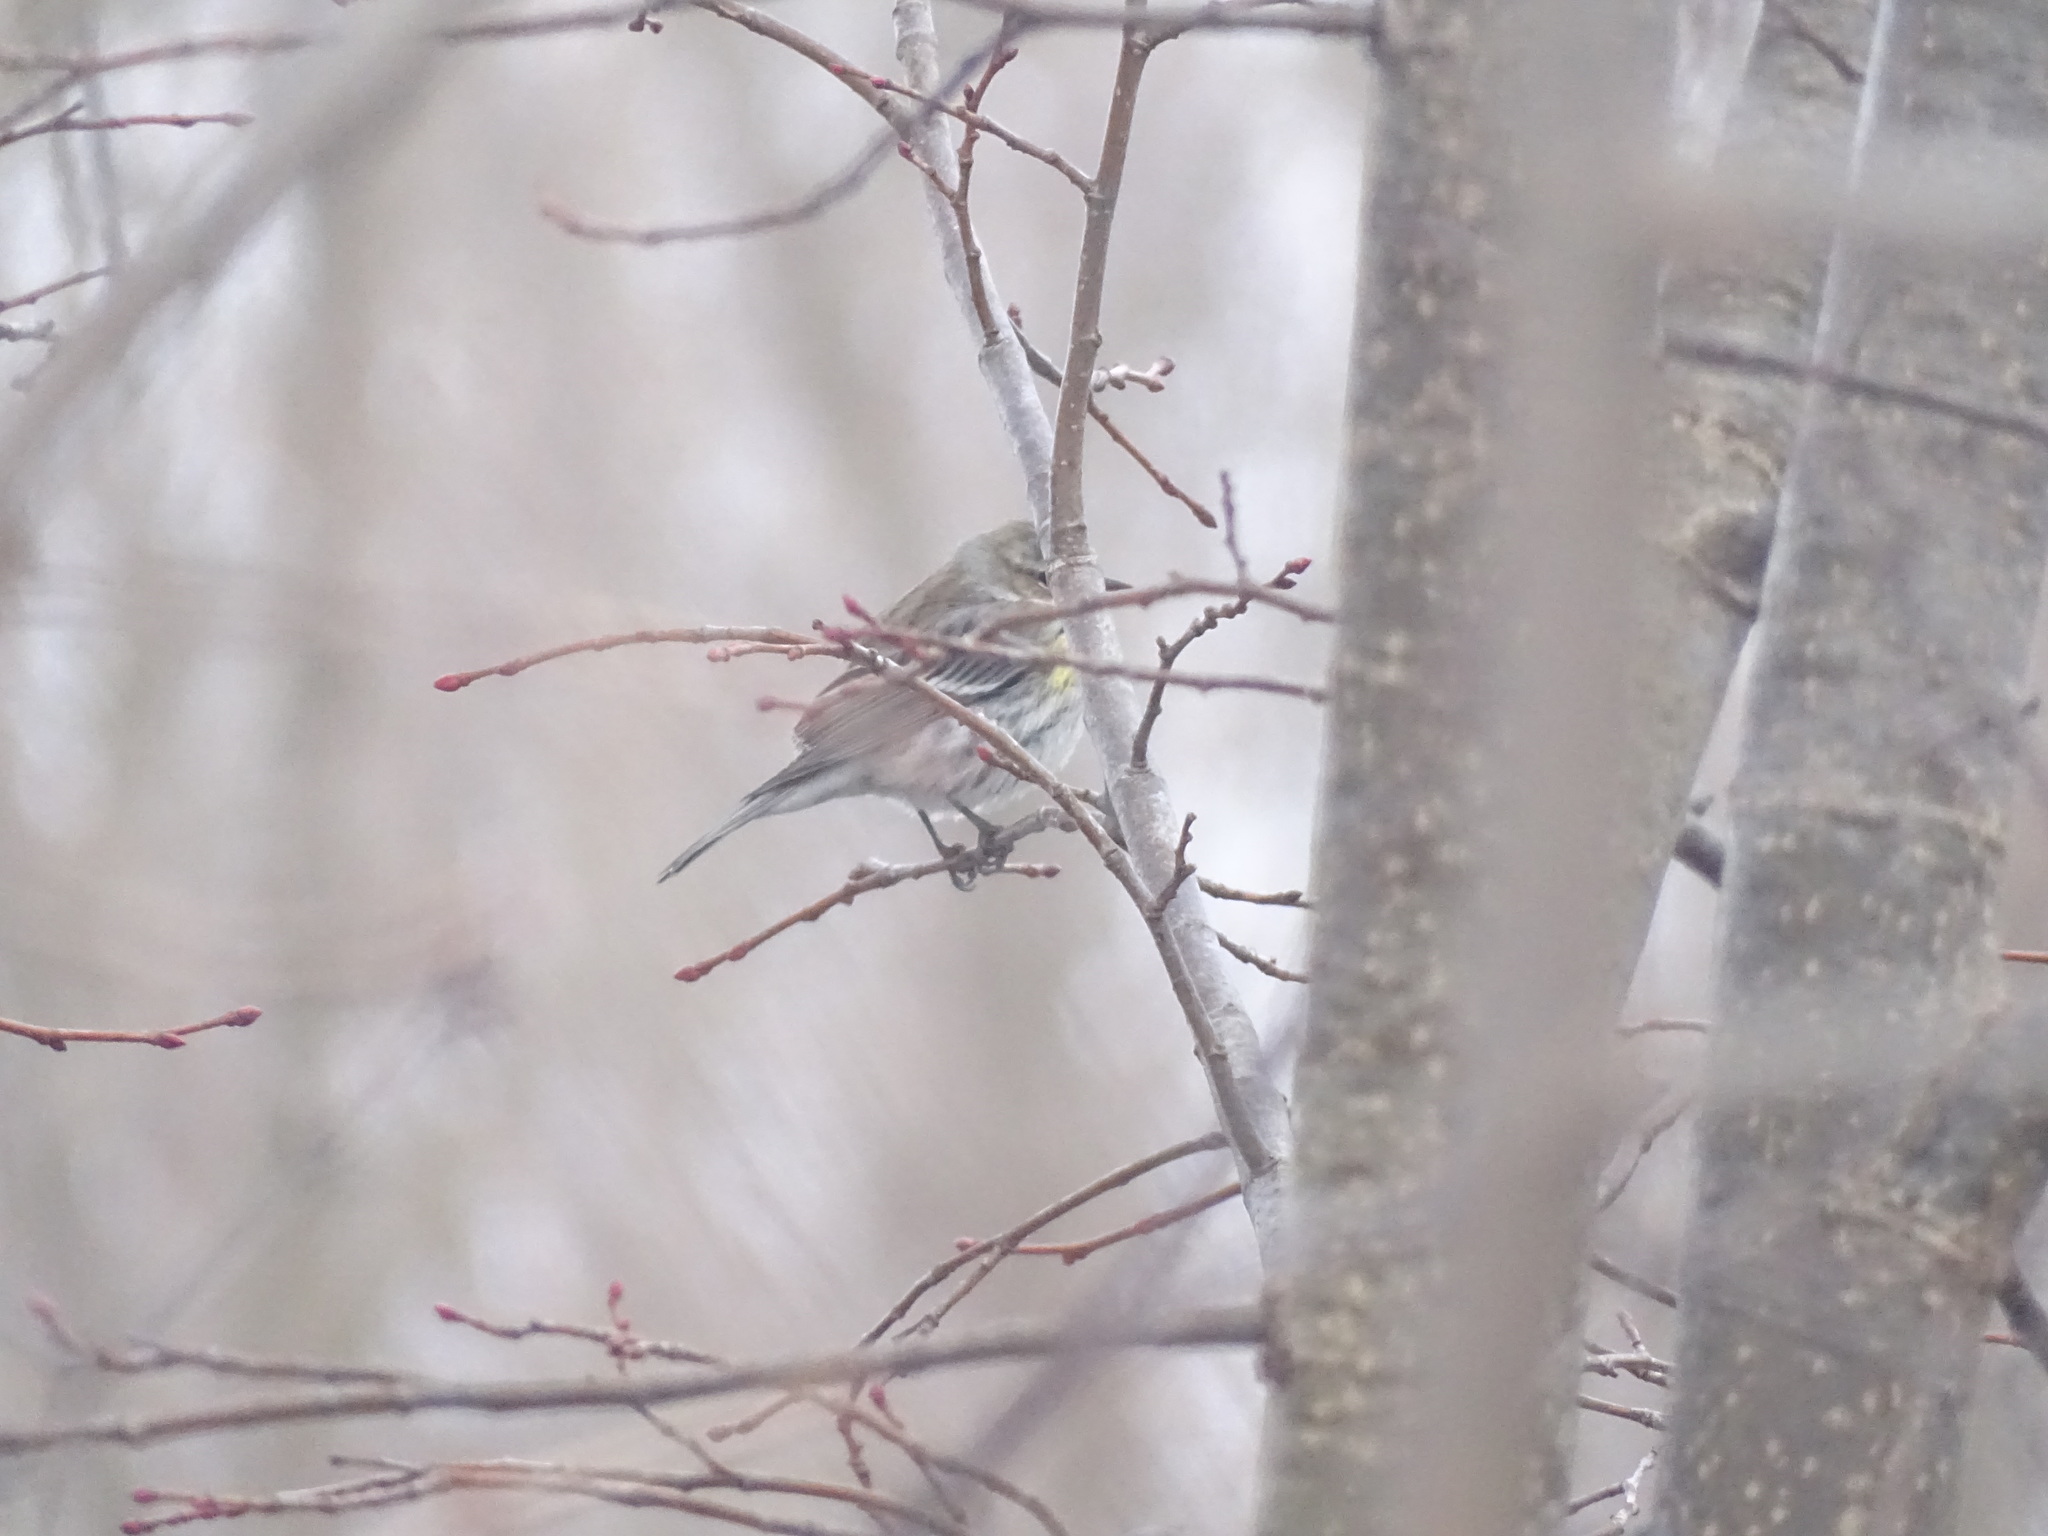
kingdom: Animalia
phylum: Chordata
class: Aves
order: Passeriformes
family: Parulidae
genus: Setophaga
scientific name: Setophaga coronata
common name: Myrtle warbler
